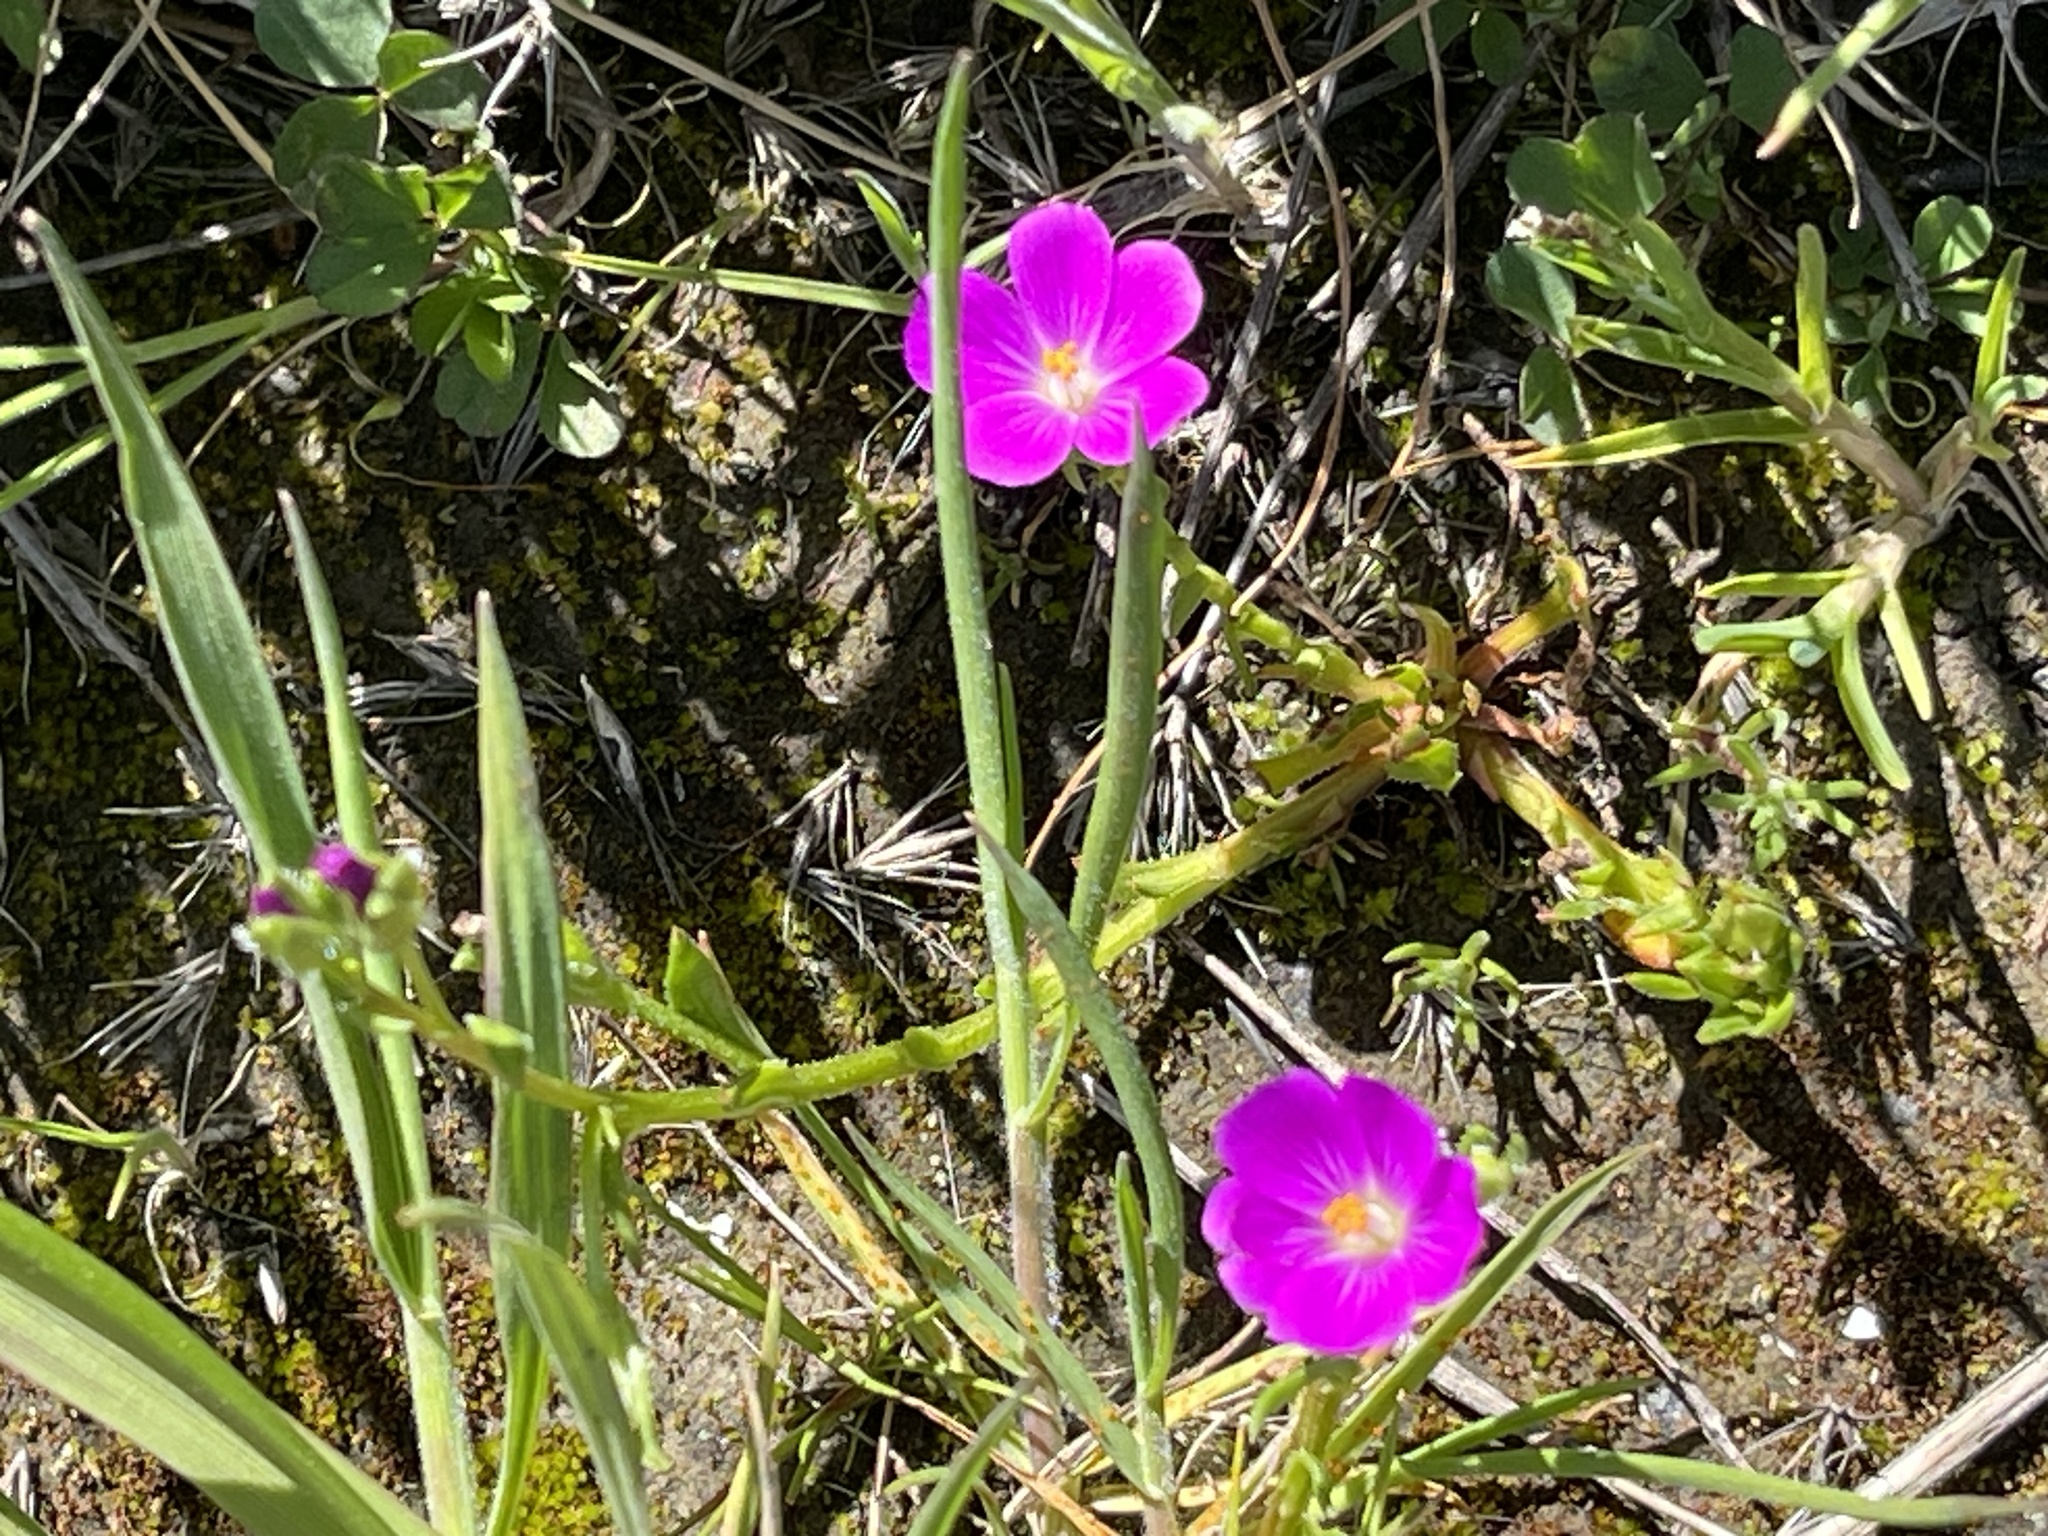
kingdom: Plantae
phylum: Tracheophyta
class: Magnoliopsida
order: Caryophyllales
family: Montiaceae
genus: Calandrinia
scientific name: Calandrinia menziesii
